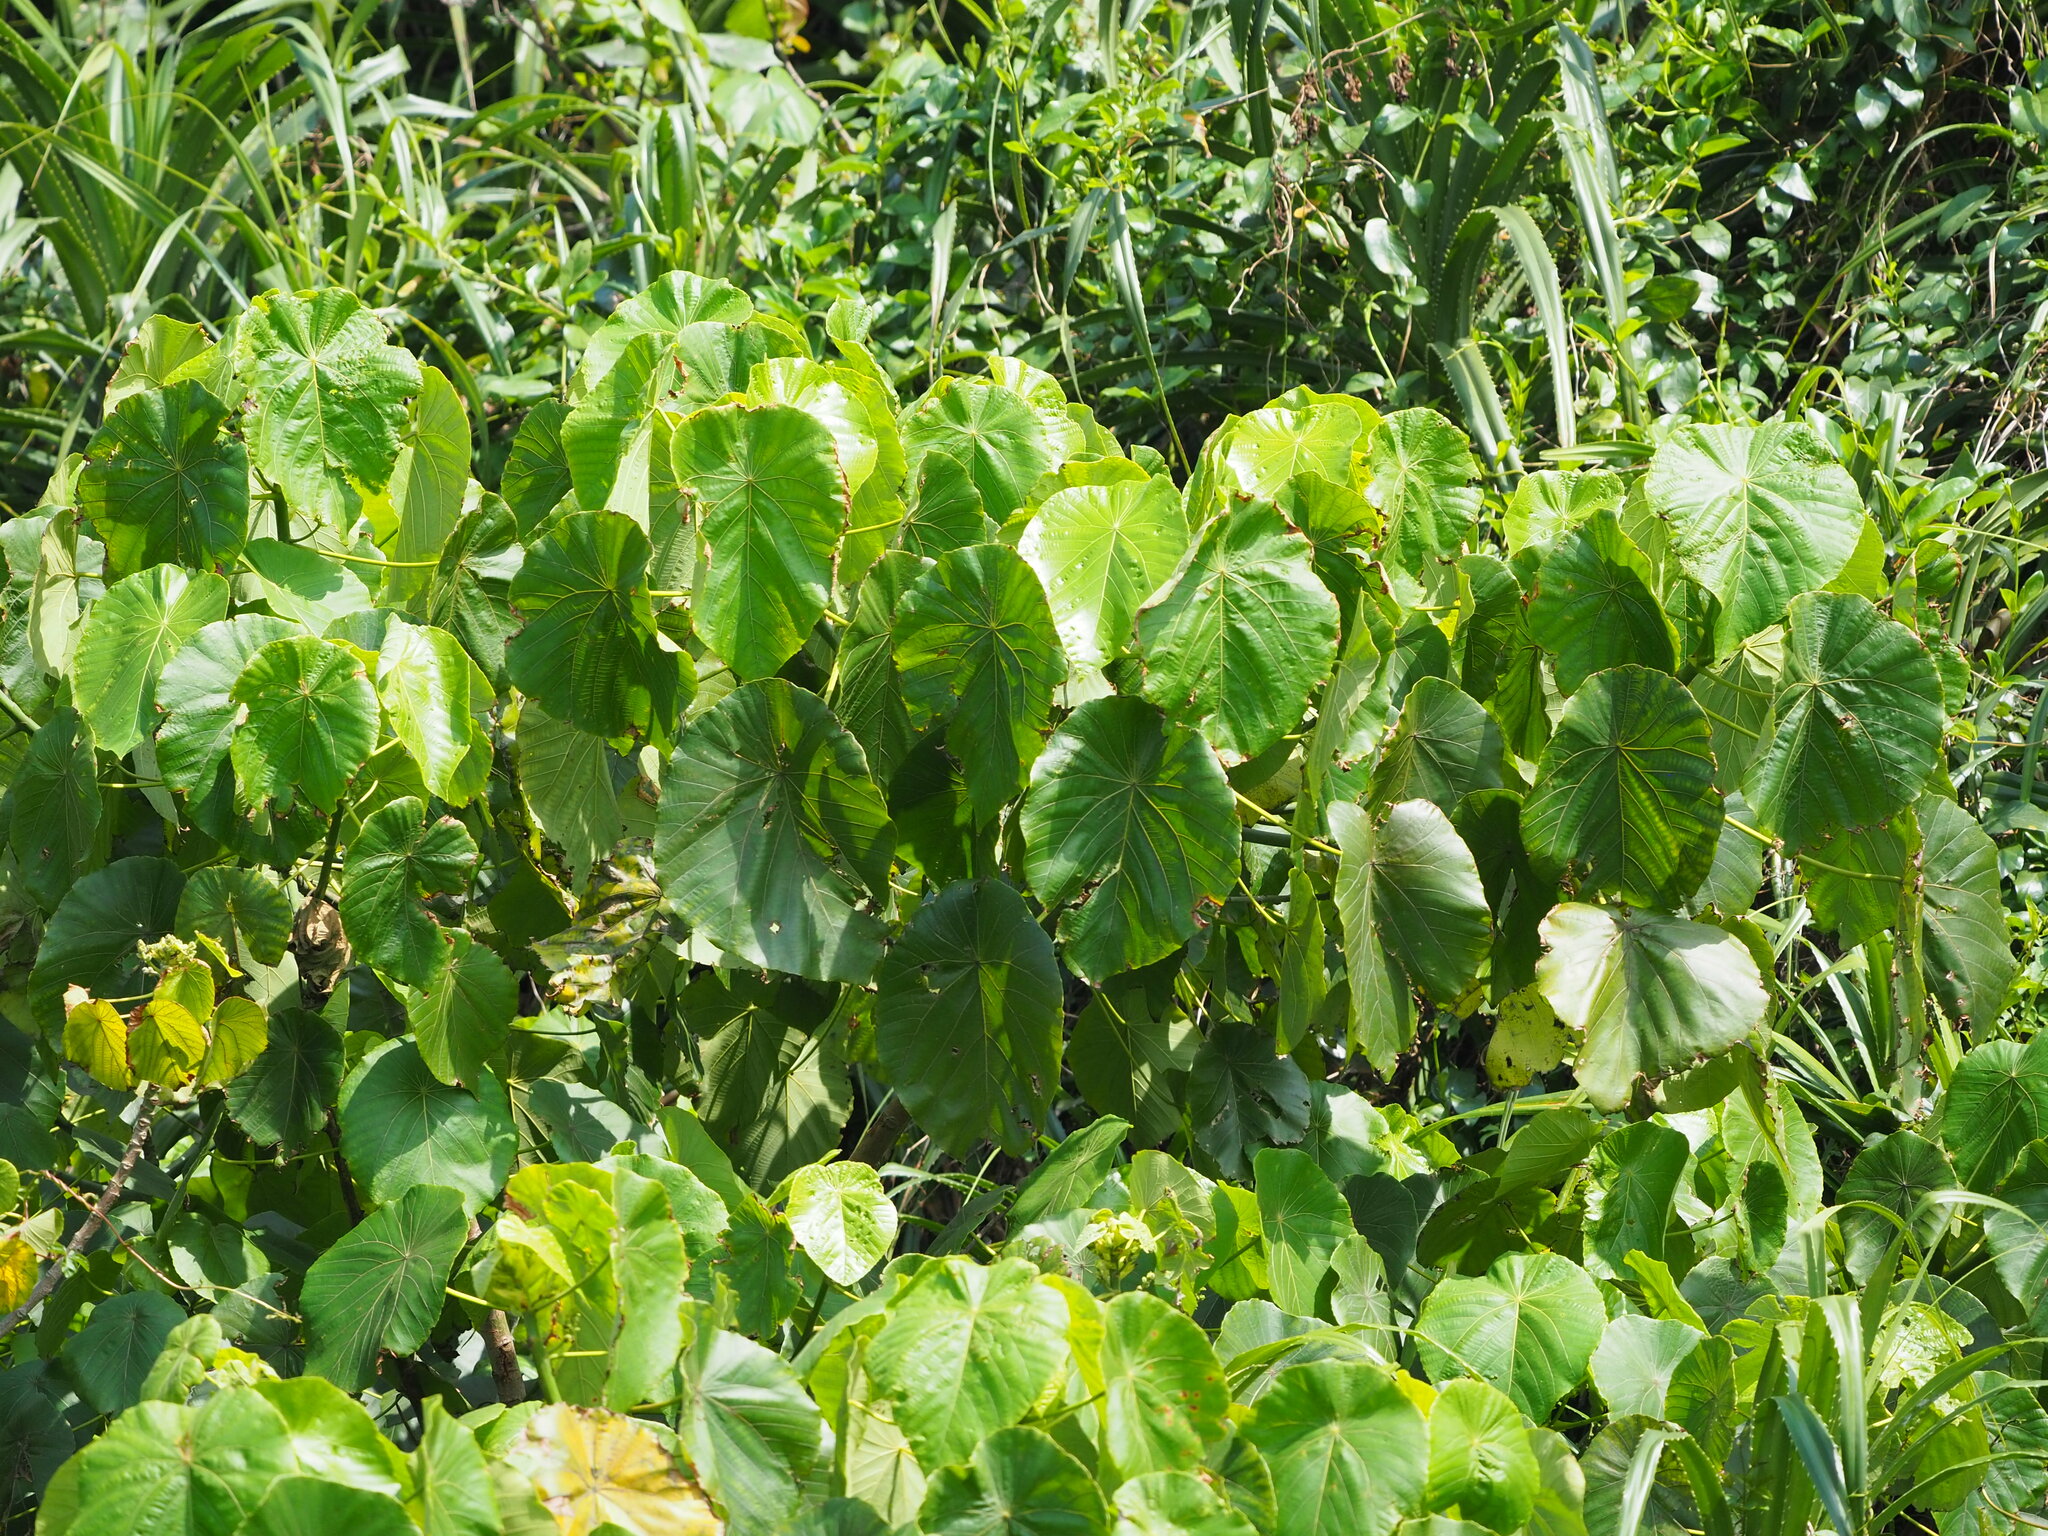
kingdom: Plantae
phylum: Tracheophyta
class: Magnoliopsida
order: Malpighiales
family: Euphorbiaceae
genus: Macaranga
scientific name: Macaranga tanarius
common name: Parasol leaf tree
